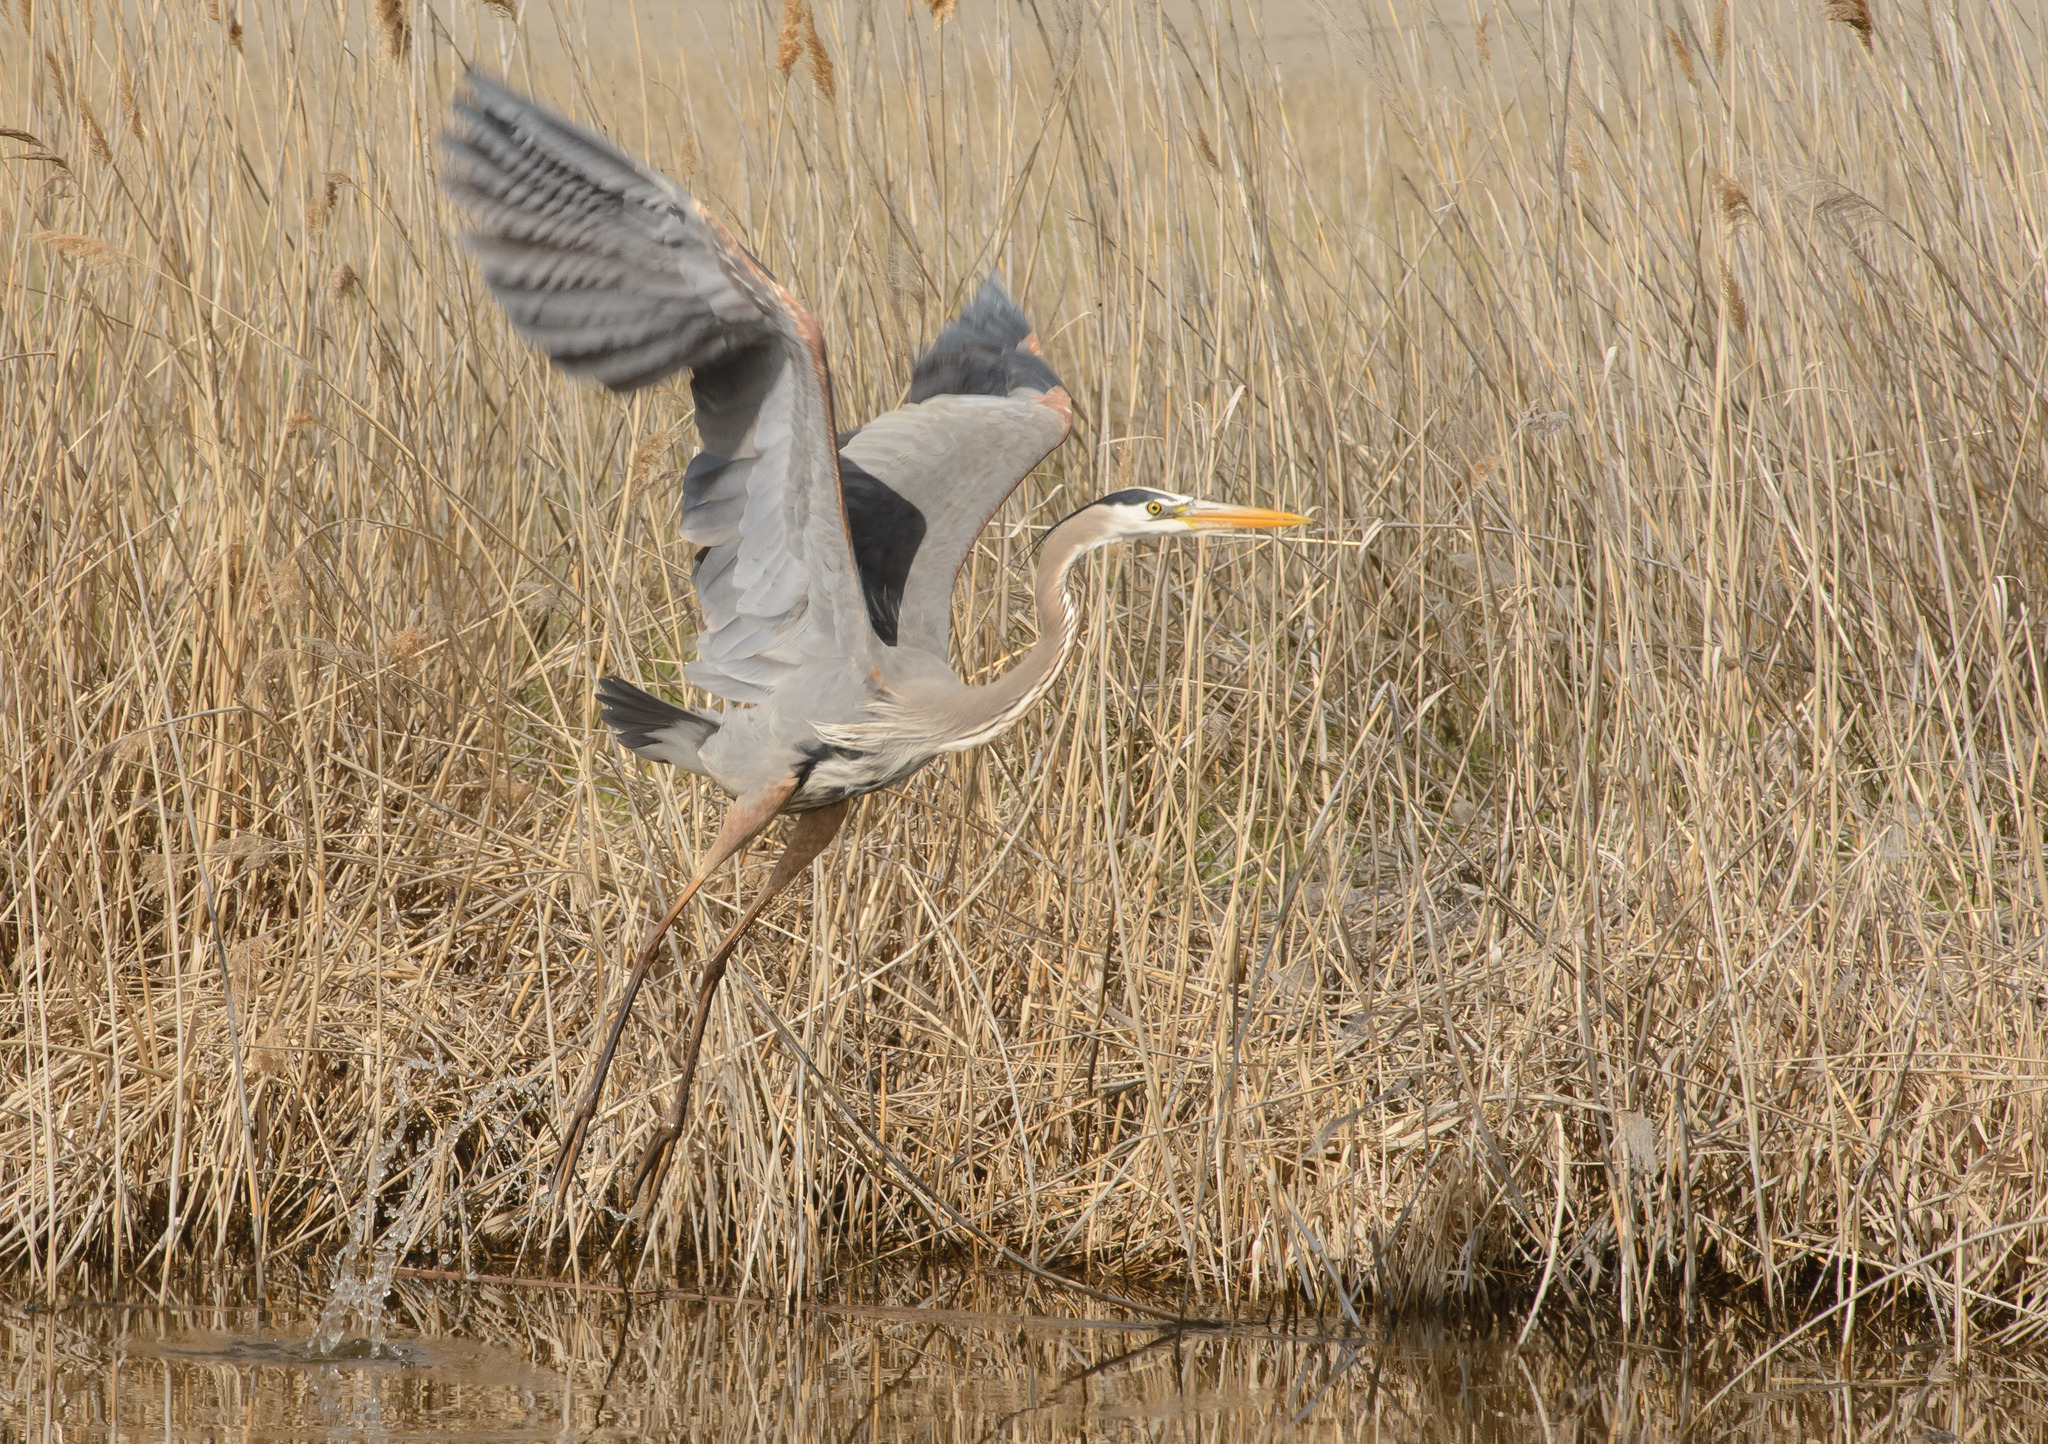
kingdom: Animalia
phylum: Chordata
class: Aves
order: Pelecaniformes
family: Ardeidae
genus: Ardea
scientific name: Ardea herodias
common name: Great blue heron
